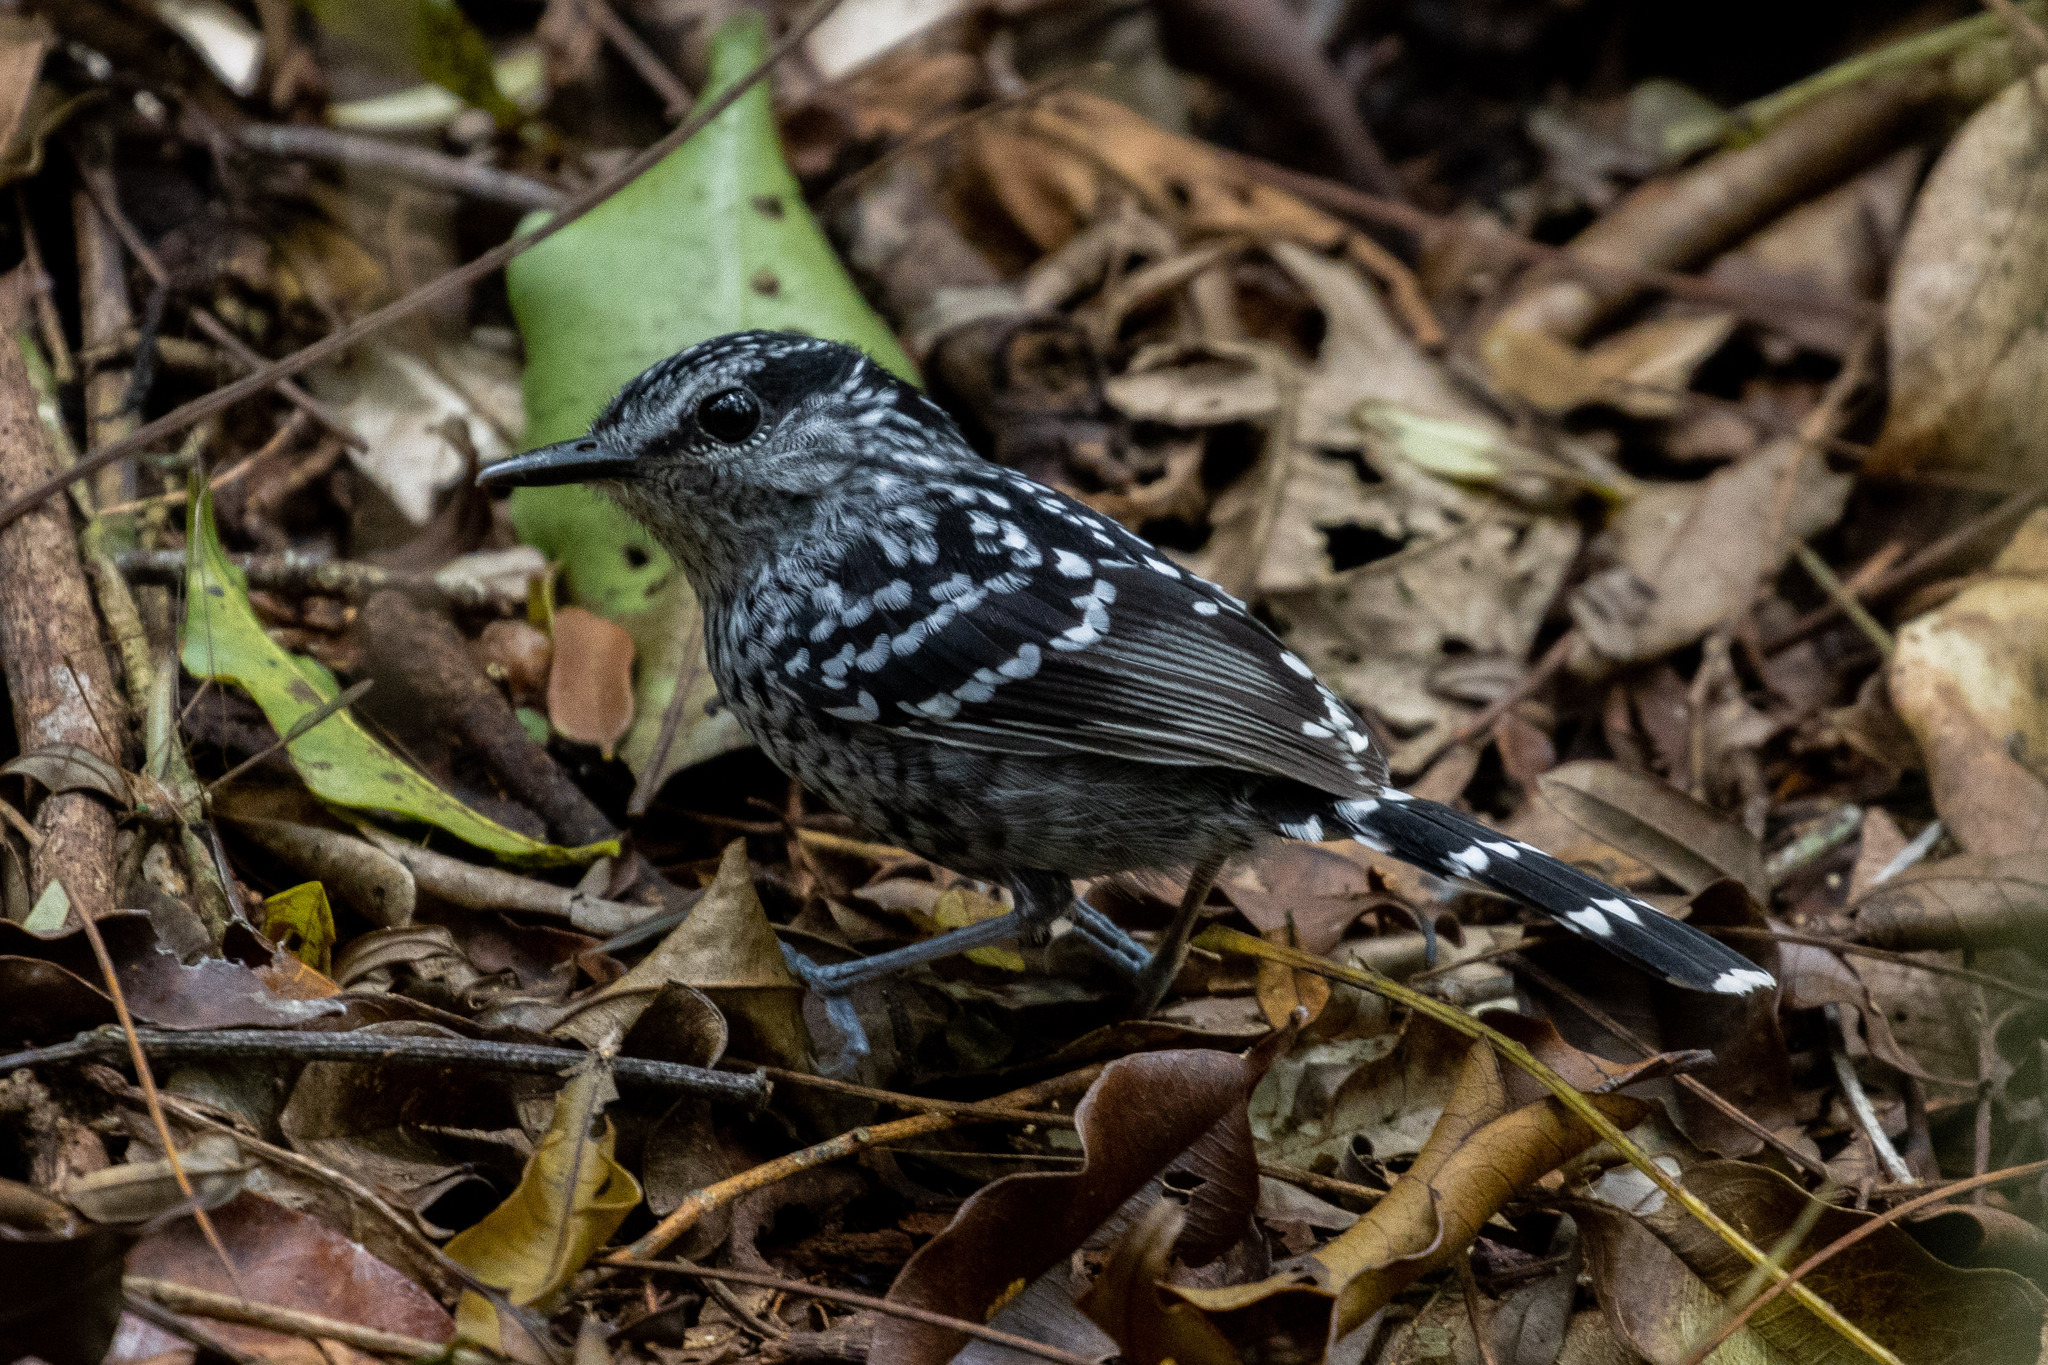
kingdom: Animalia
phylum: Chordata
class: Aves
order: Passeriformes
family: Thamnophilidae
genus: Drymophila
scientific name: Drymophila squamata
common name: Scaled antbird
